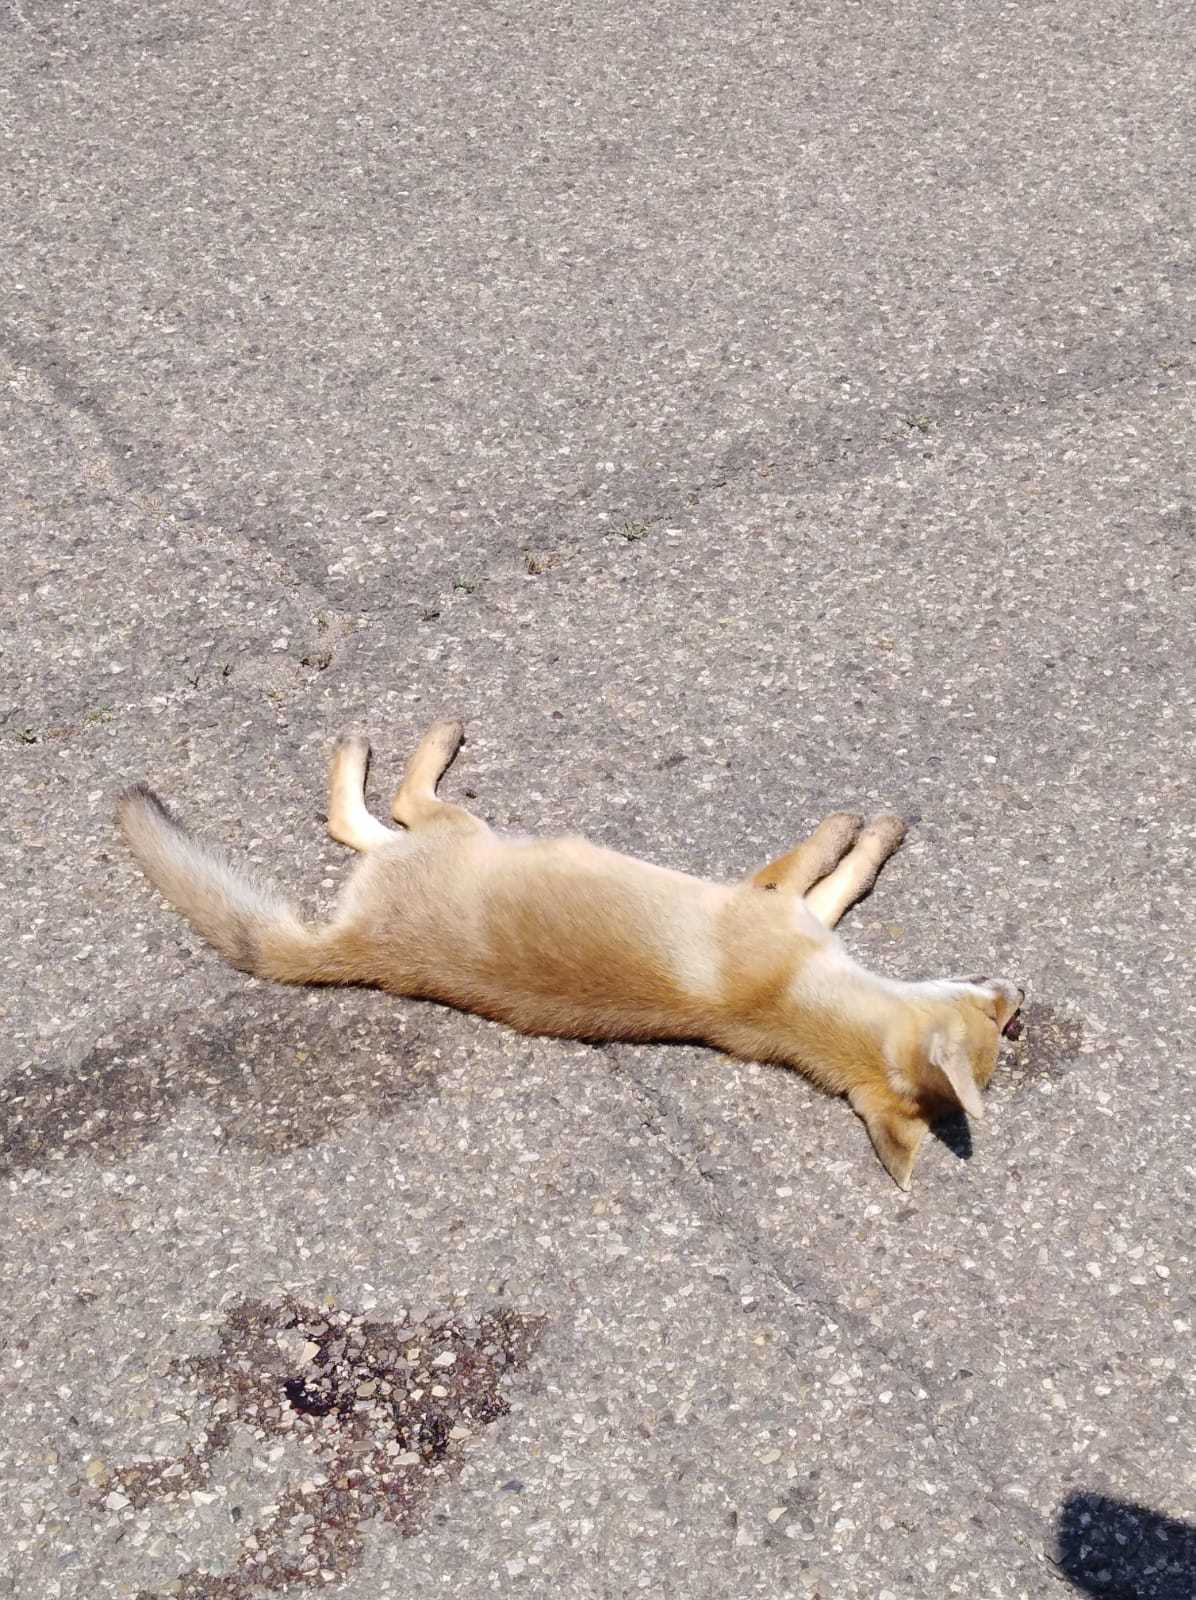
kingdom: Animalia
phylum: Chordata
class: Mammalia
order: Carnivora
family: Canidae
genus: Vulpes
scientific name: Vulpes vulpes
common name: Red fox
